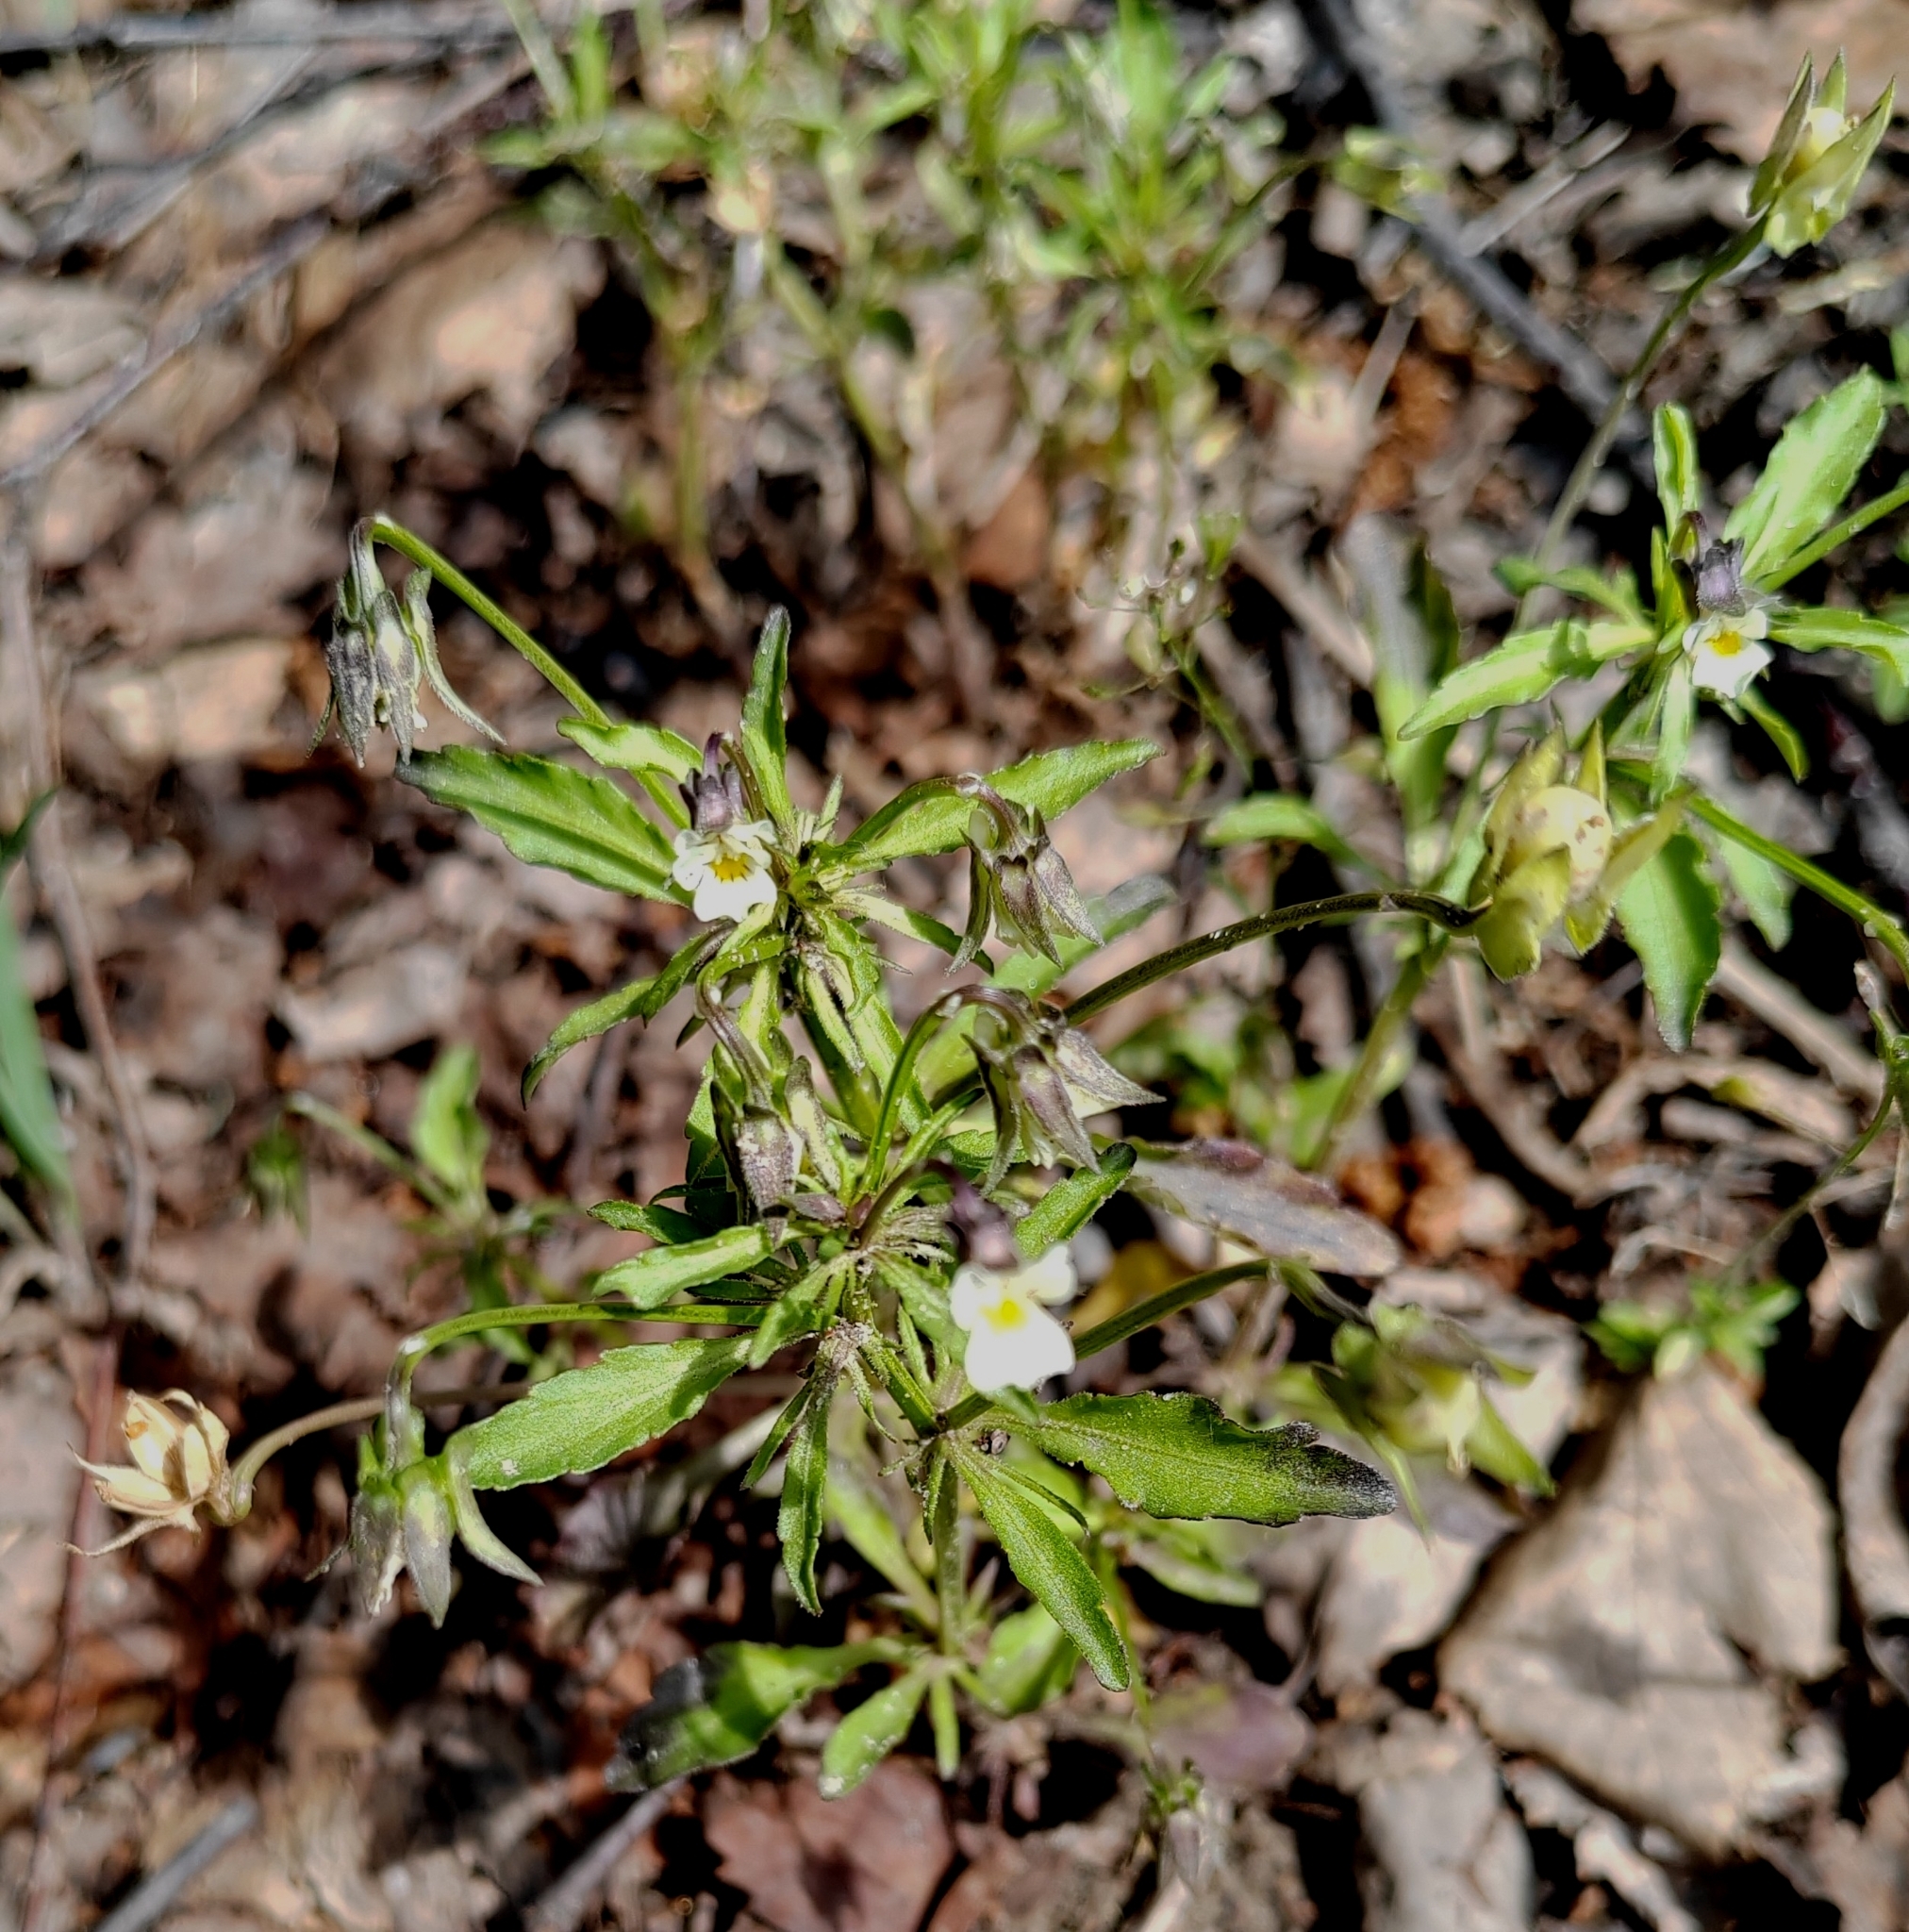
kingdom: Plantae
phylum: Tracheophyta
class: Magnoliopsida
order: Malpighiales
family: Violaceae
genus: Viola
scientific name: Viola arvensis
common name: Field pansy
